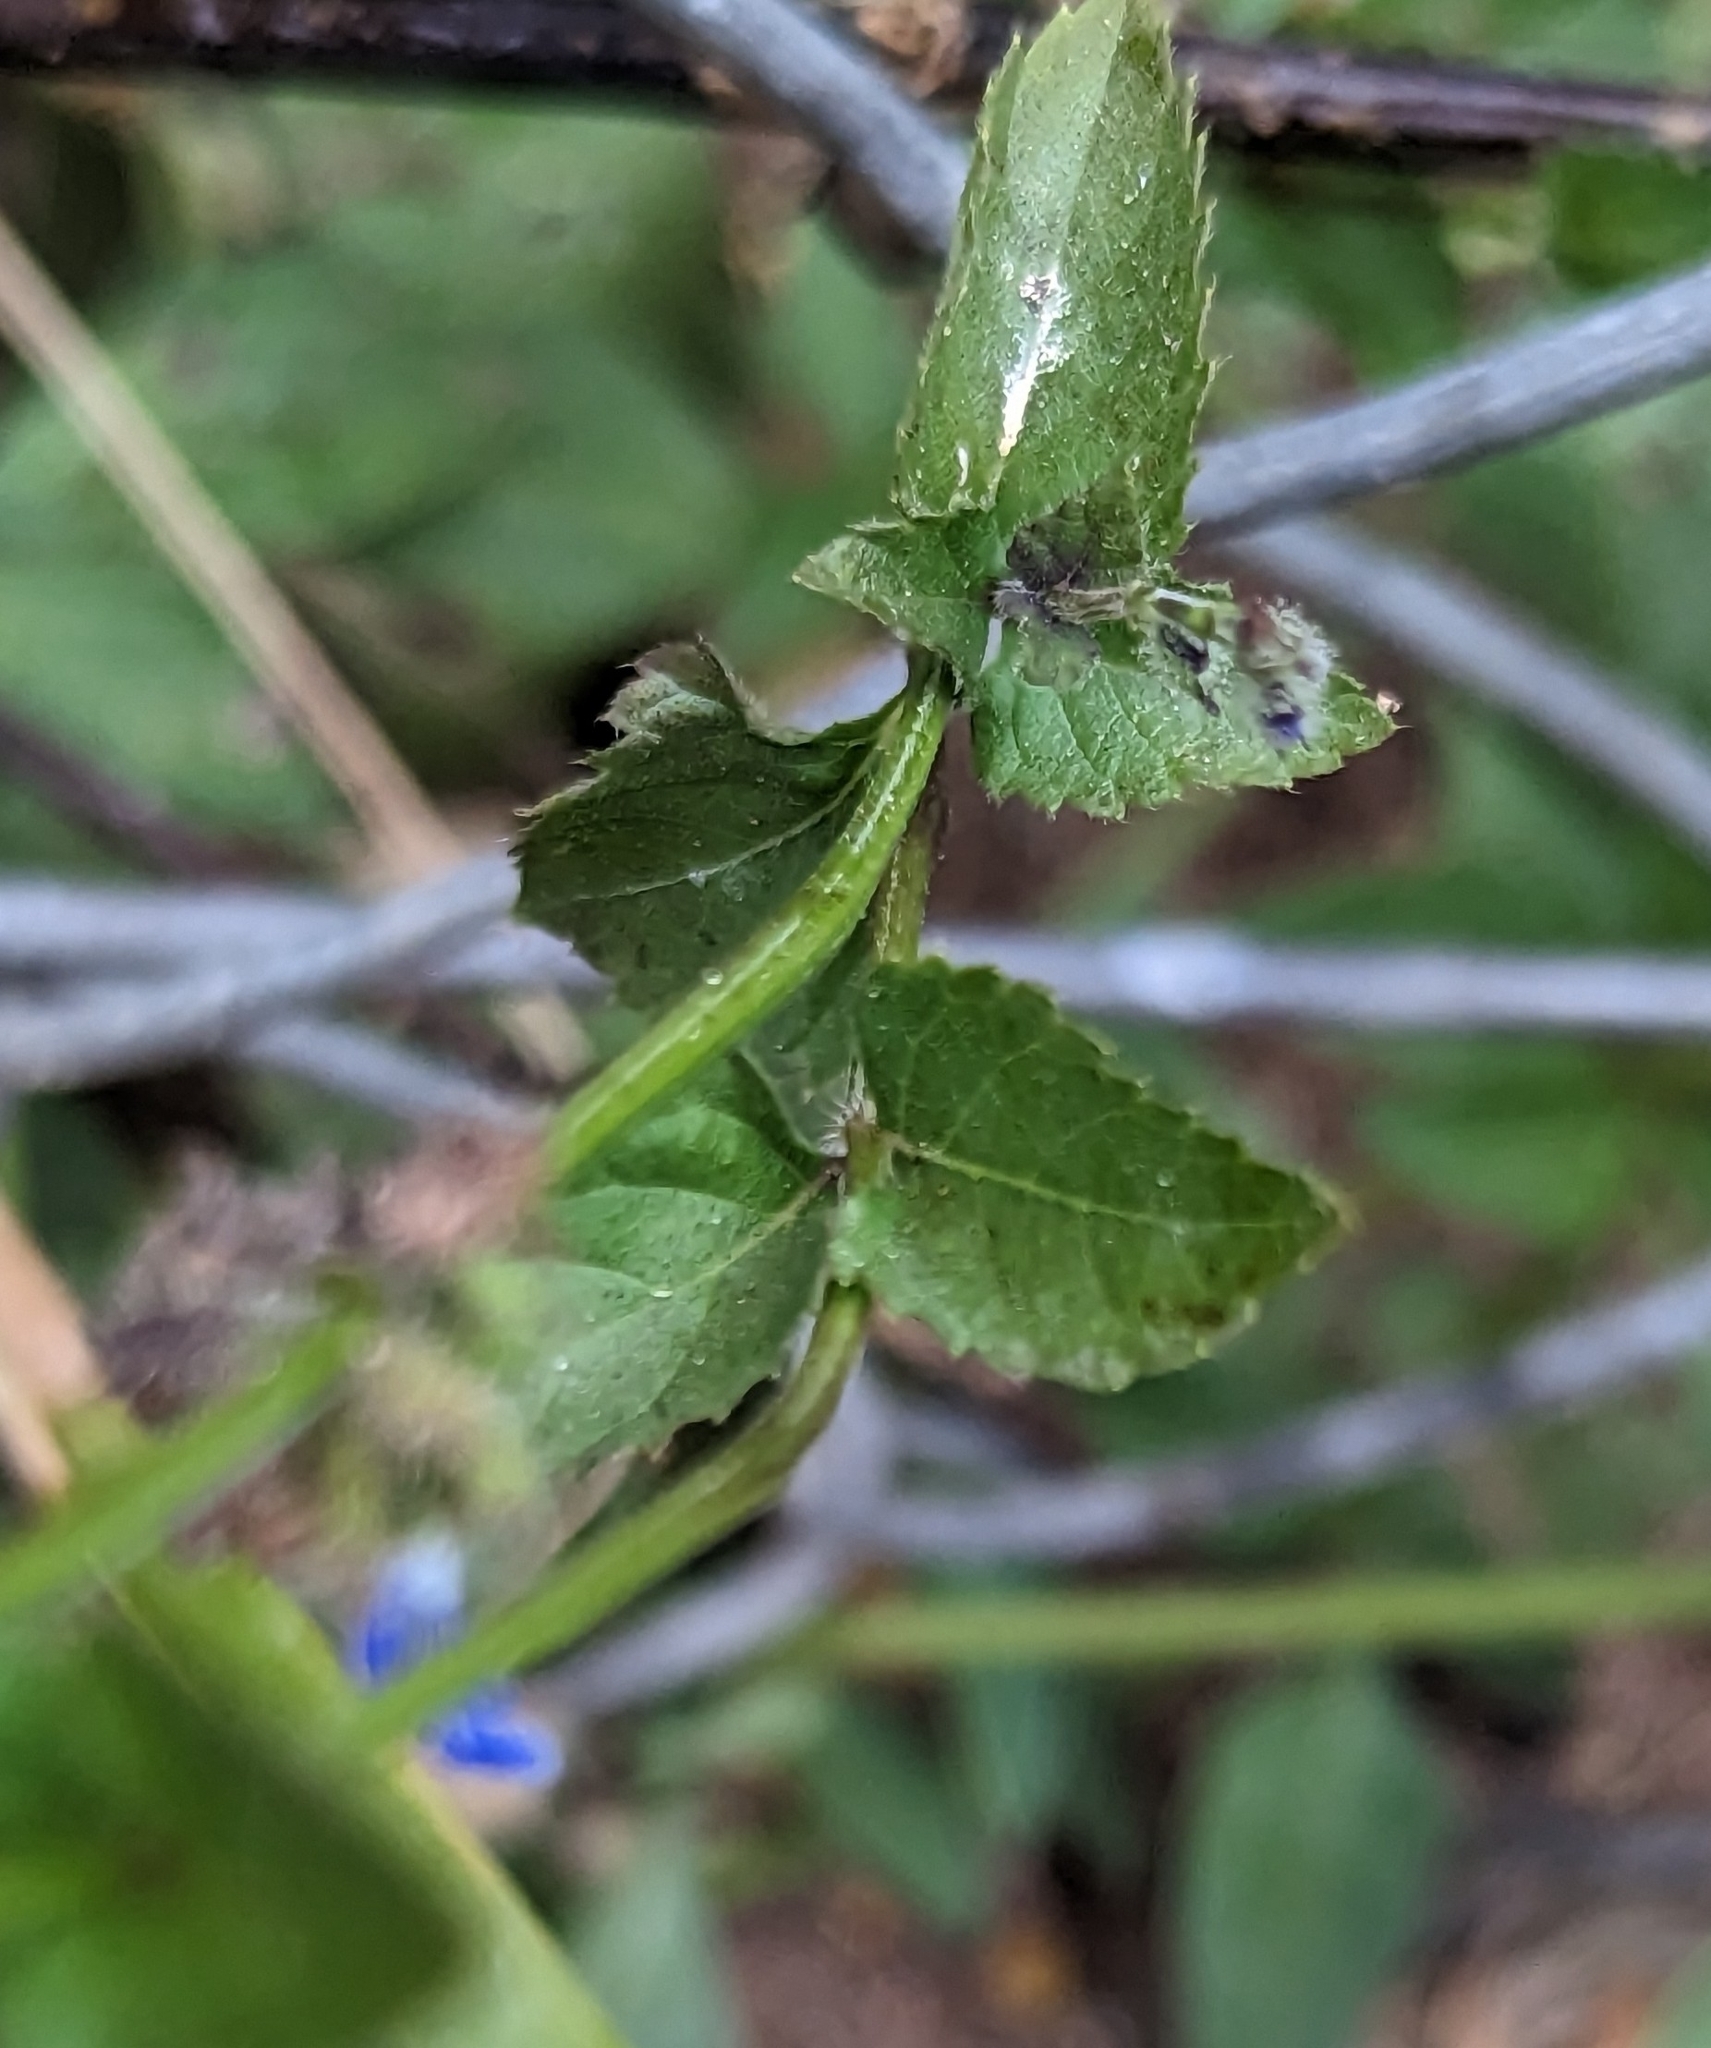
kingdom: Plantae
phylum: Tracheophyta
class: Magnoliopsida
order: Lamiales
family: Lamiaceae
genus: Salvia
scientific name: Salvia misella
